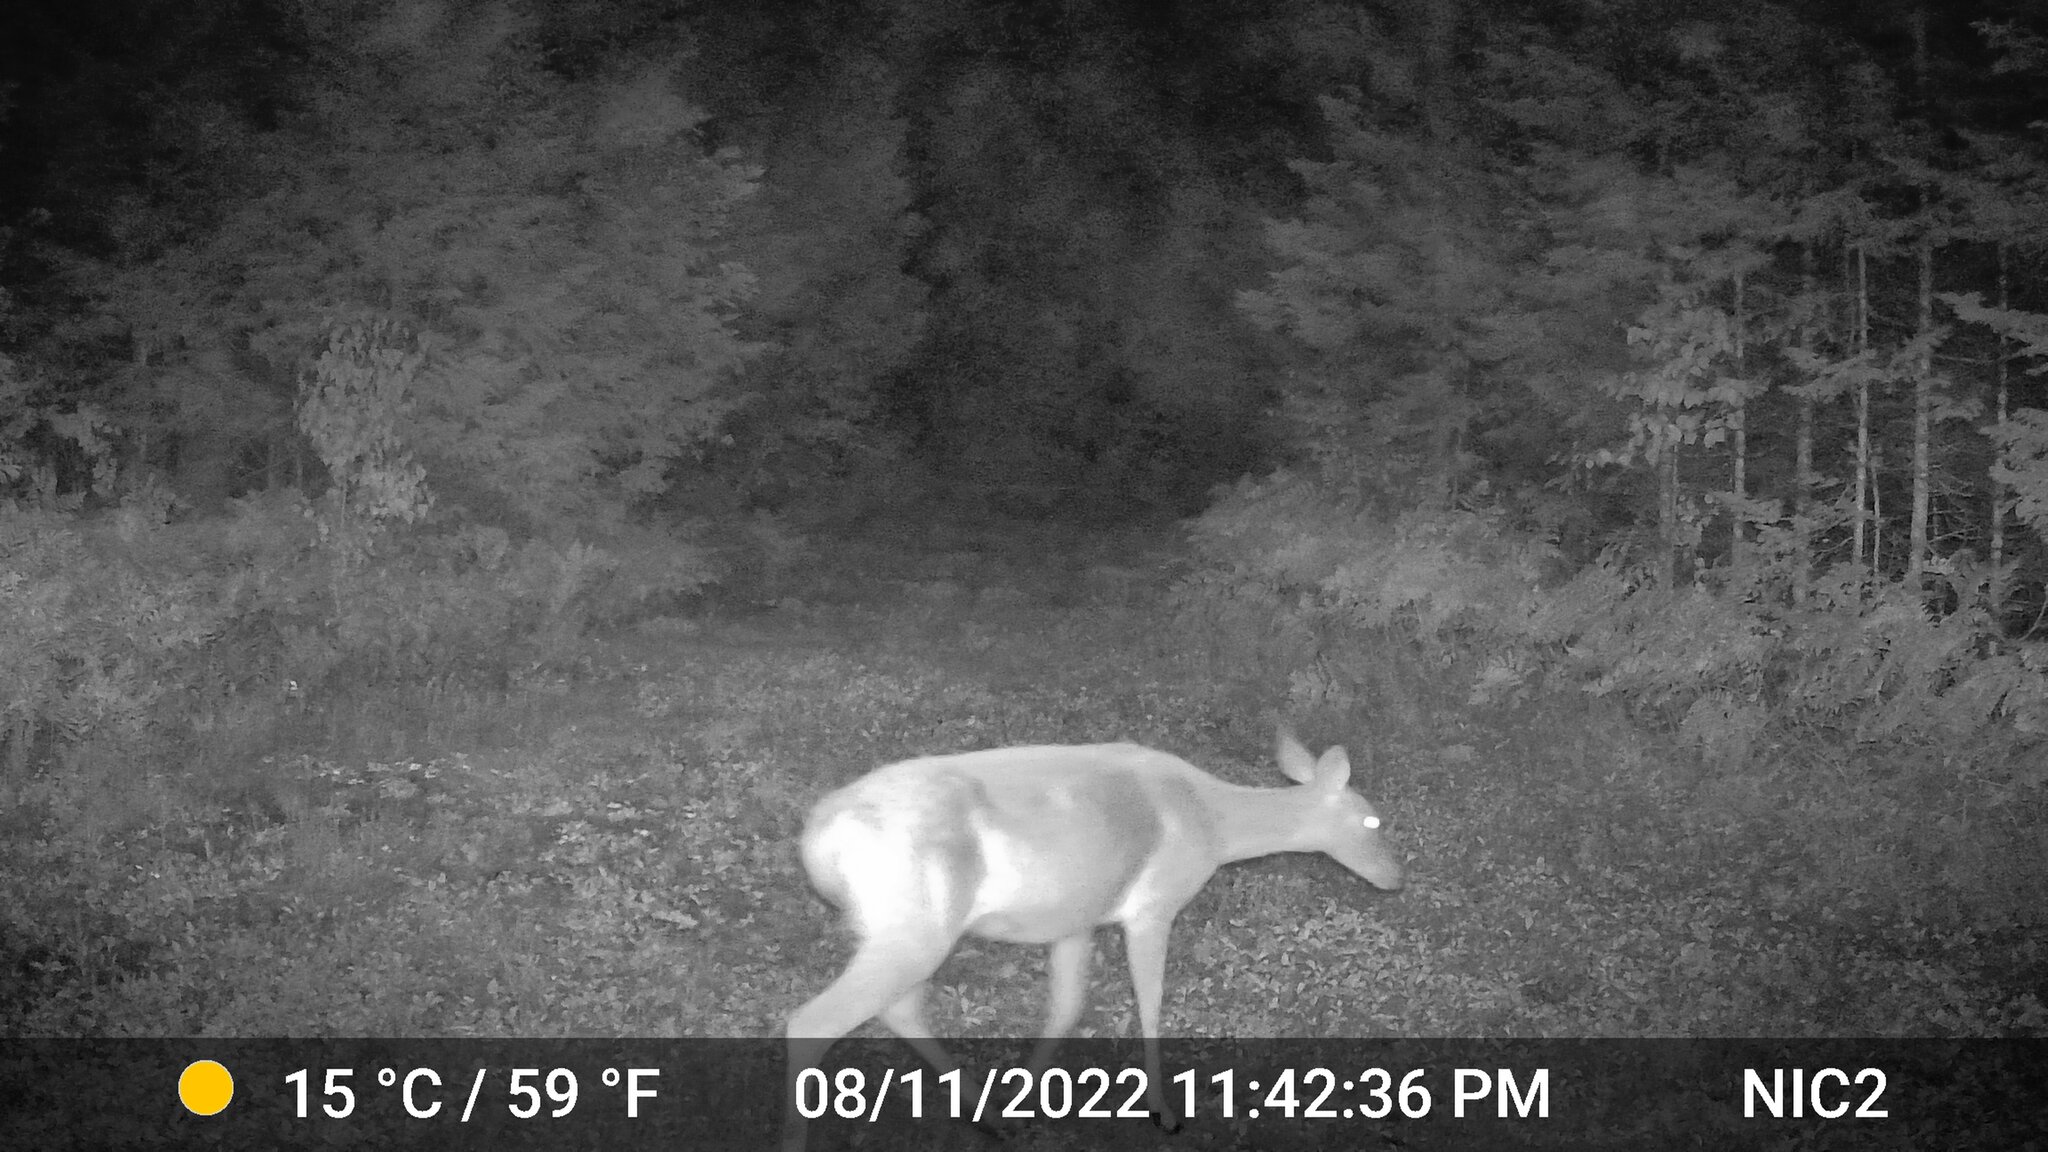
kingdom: Animalia
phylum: Chordata
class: Mammalia
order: Artiodactyla
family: Cervidae
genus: Odocoileus
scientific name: Odocoileus virginianus
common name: White-tailed deer
